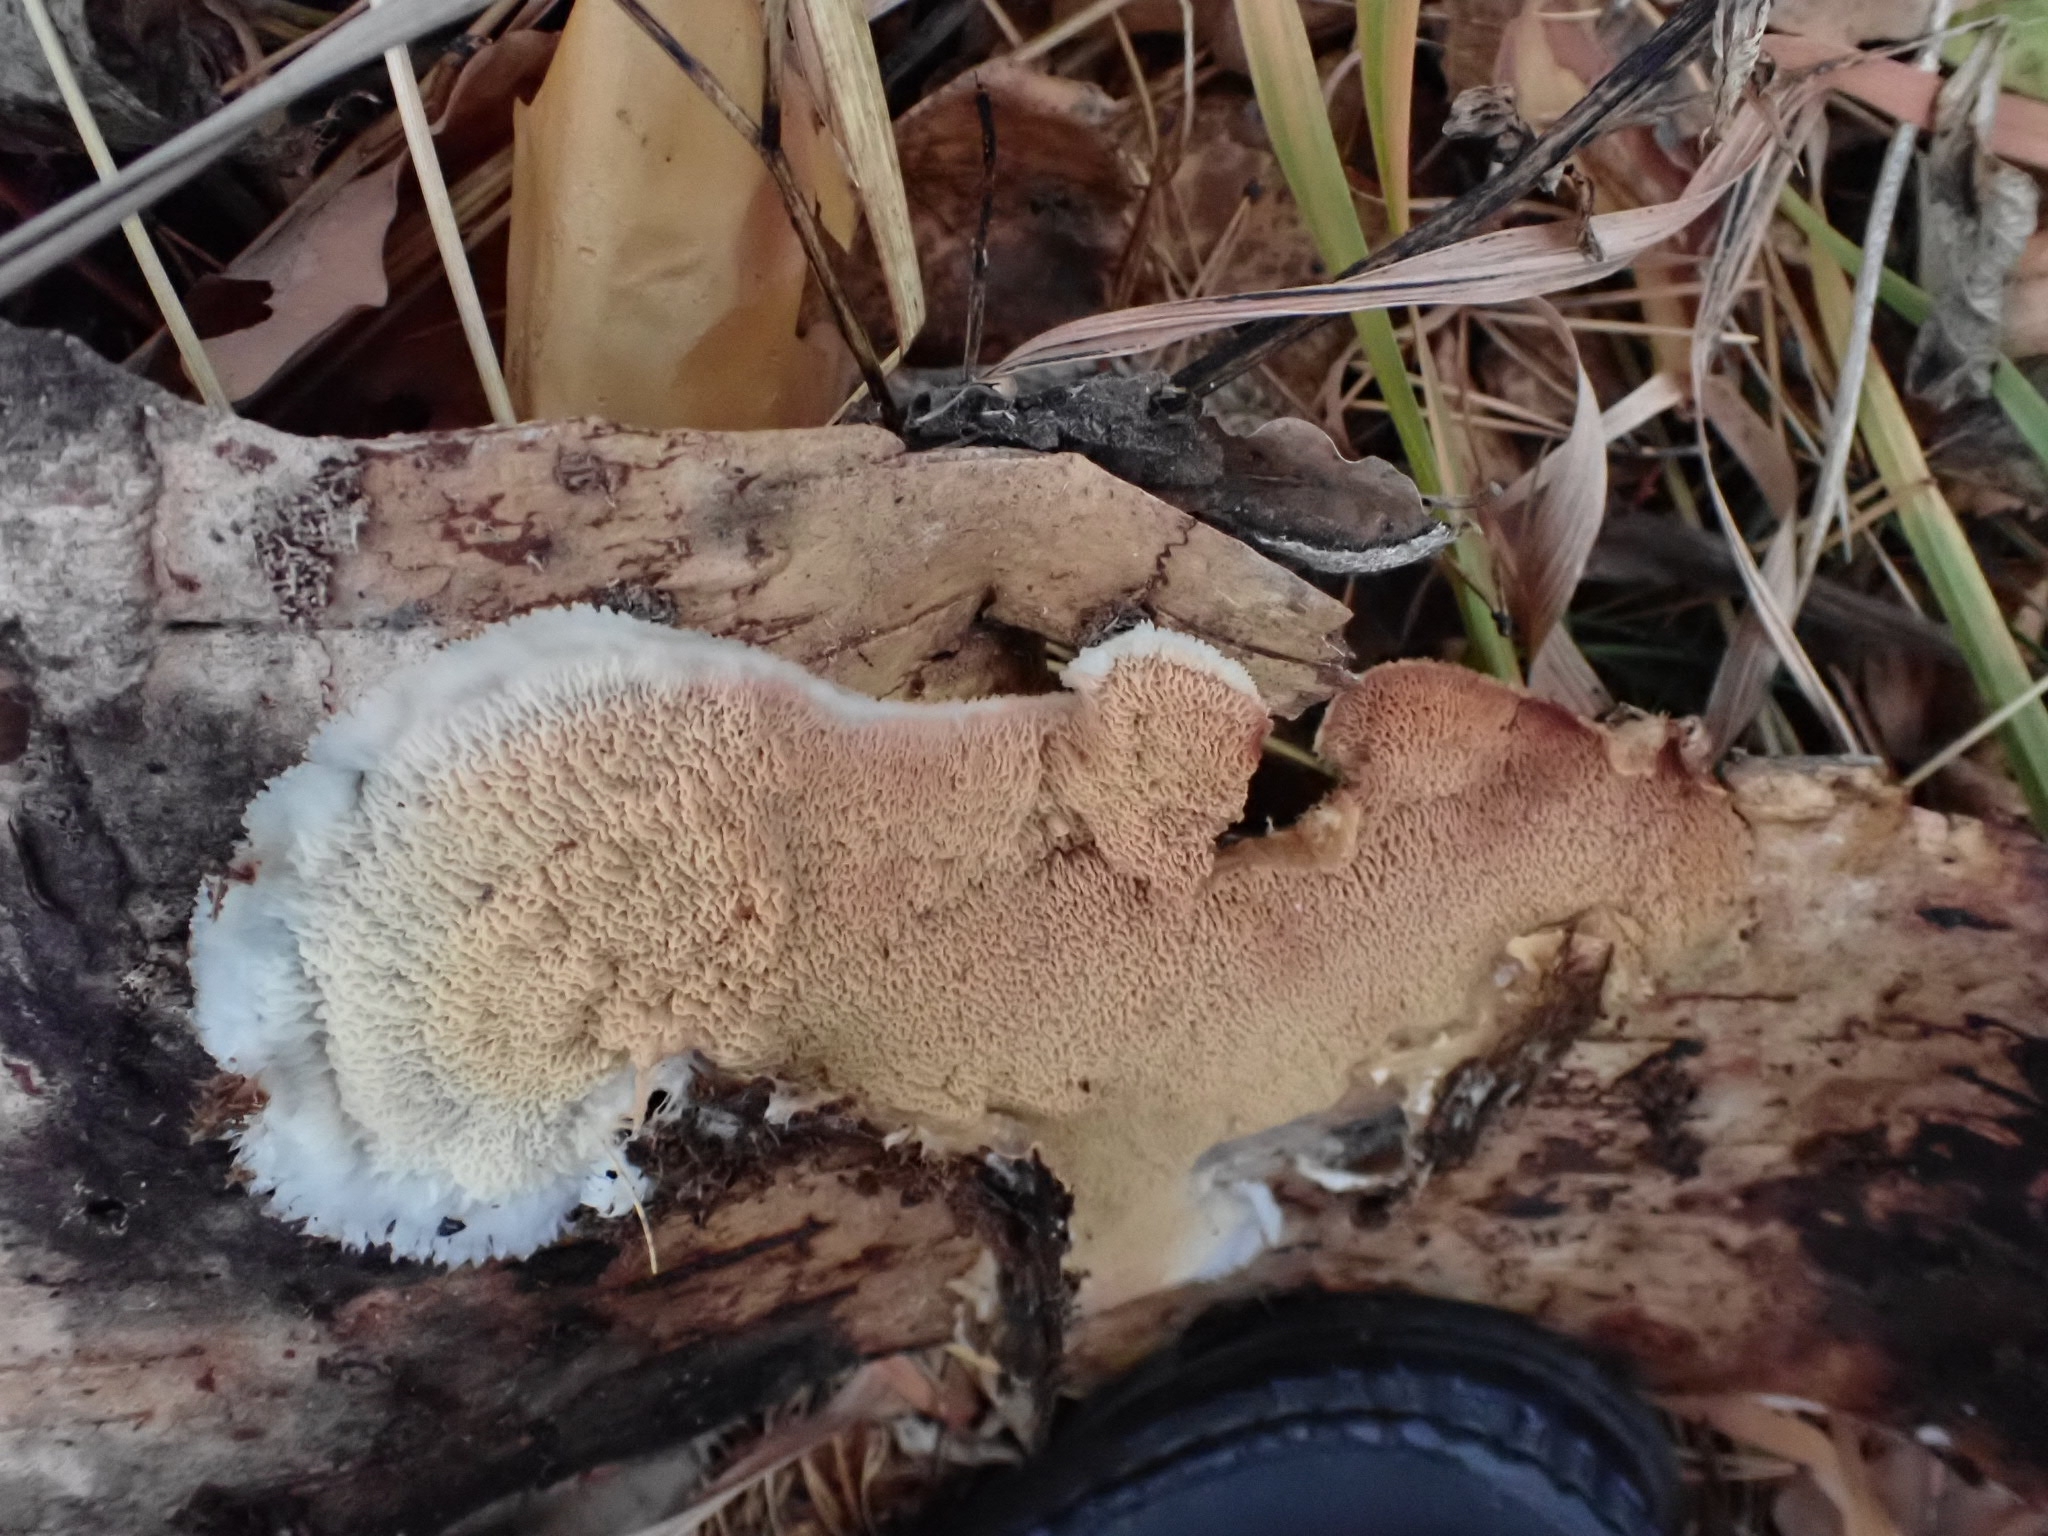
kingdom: Fungi
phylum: Basidiomycota
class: Agaricomycetes
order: Polyporales
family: Meruliaceae
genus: Phlebia
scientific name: Phlebia tremellosa
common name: Jelly rot
